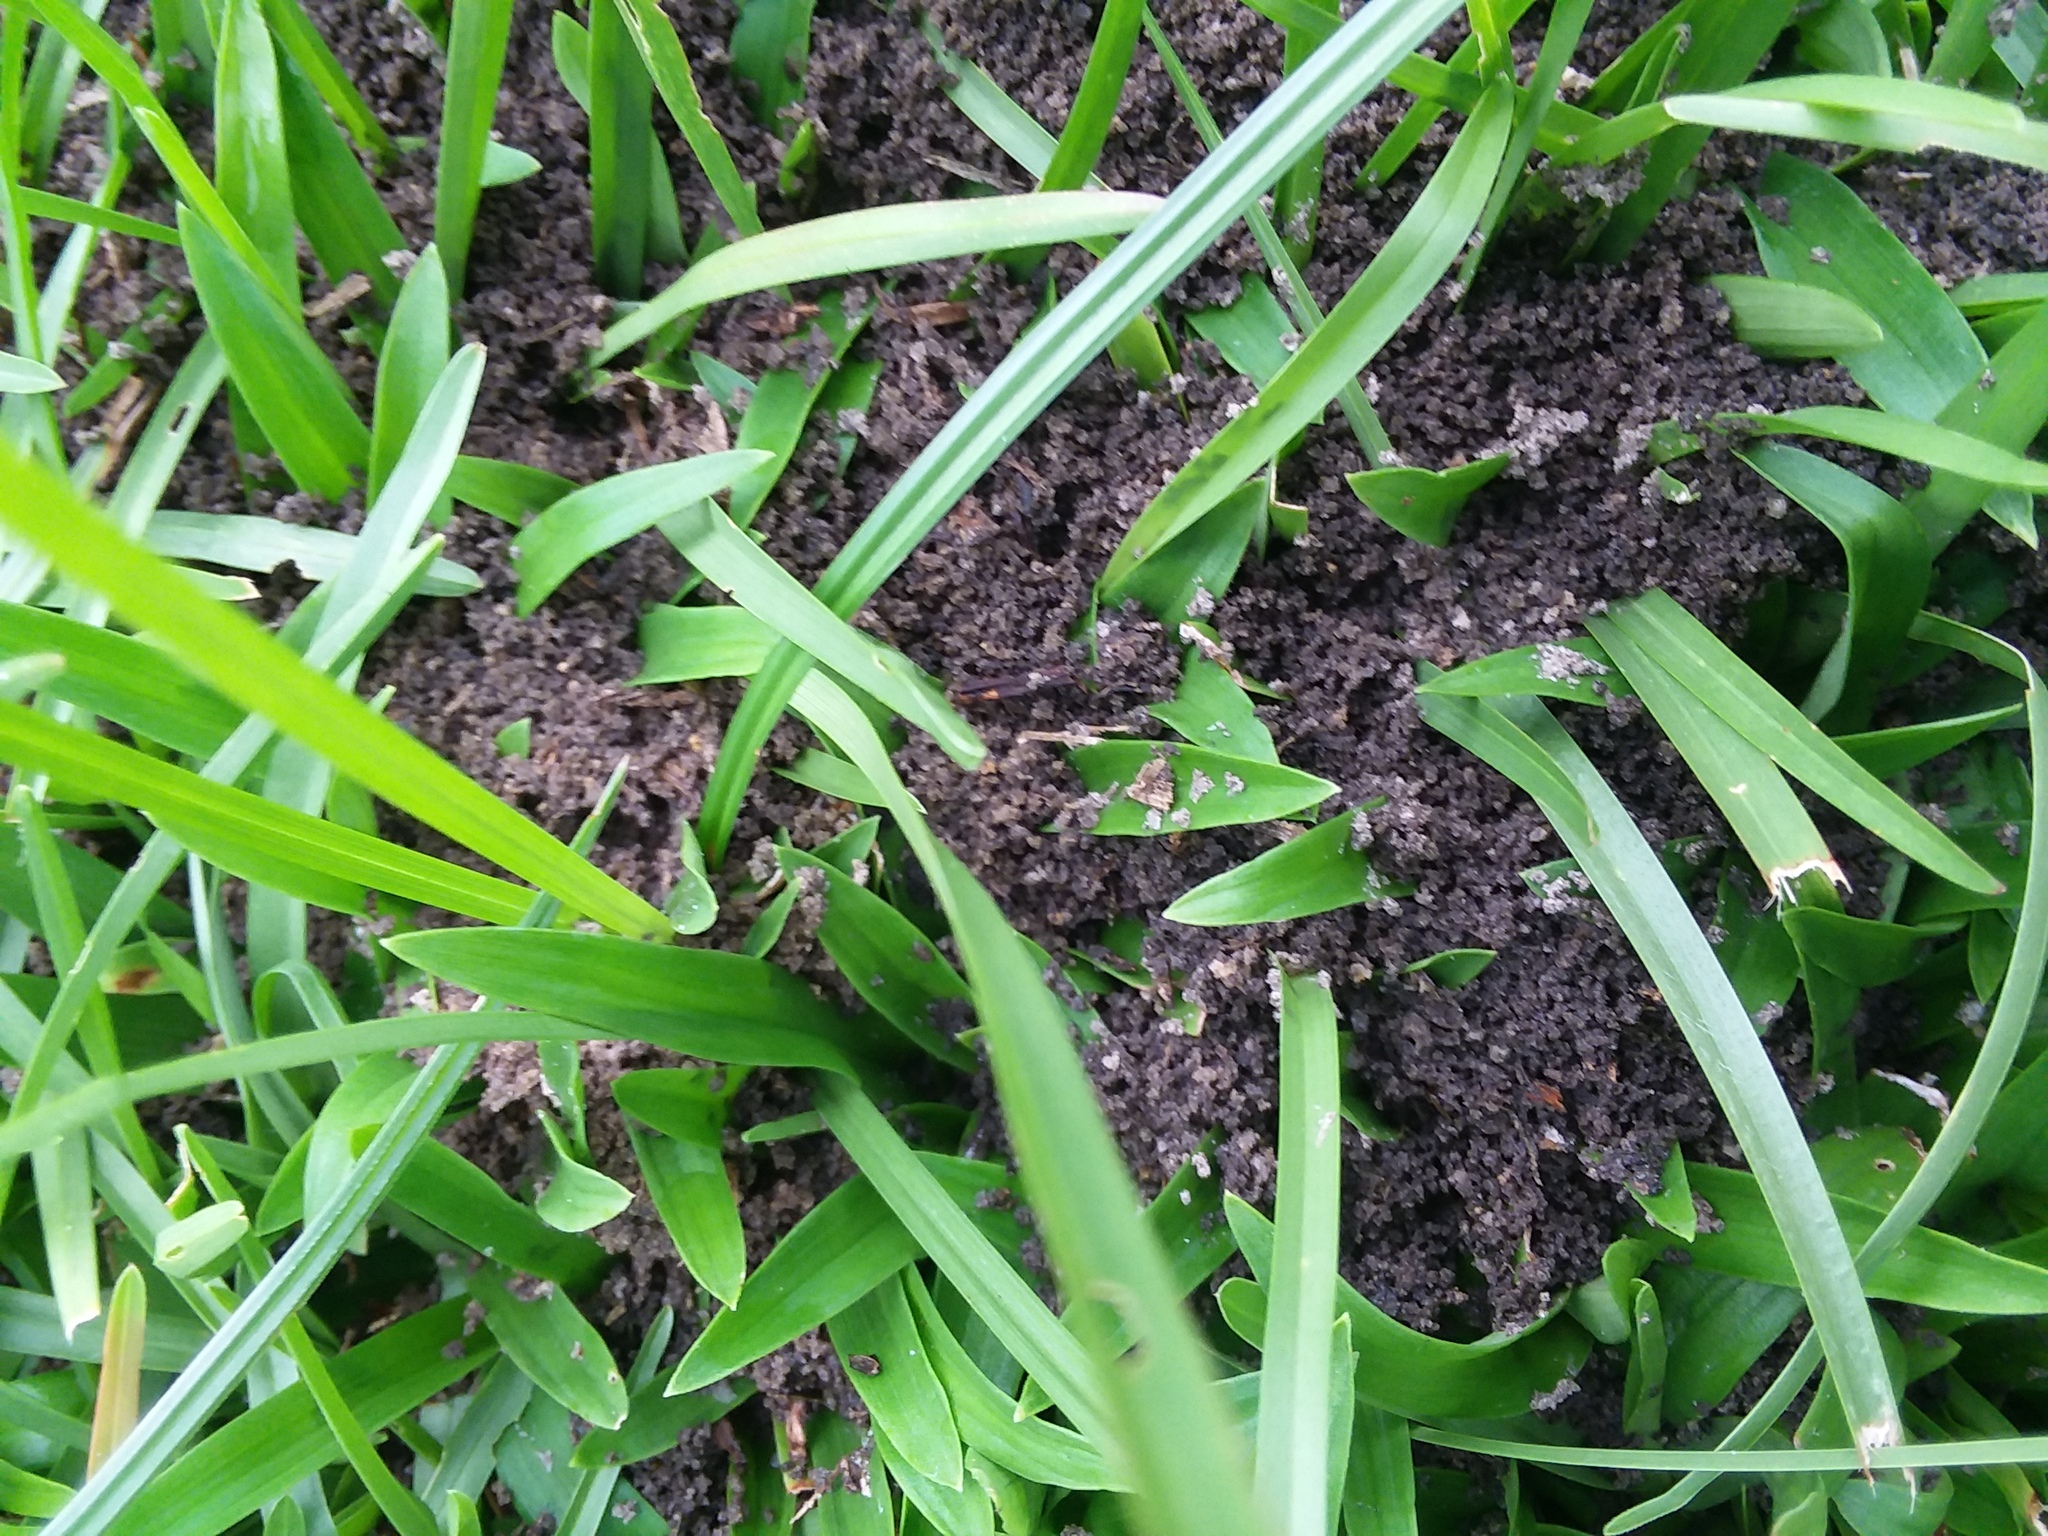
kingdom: Animalia
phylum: Arthropoda
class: Insecta
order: Hymenoptera
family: Formicidae
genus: Solenopsis
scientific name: Solenopsis invicta
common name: Red imported fire ant
